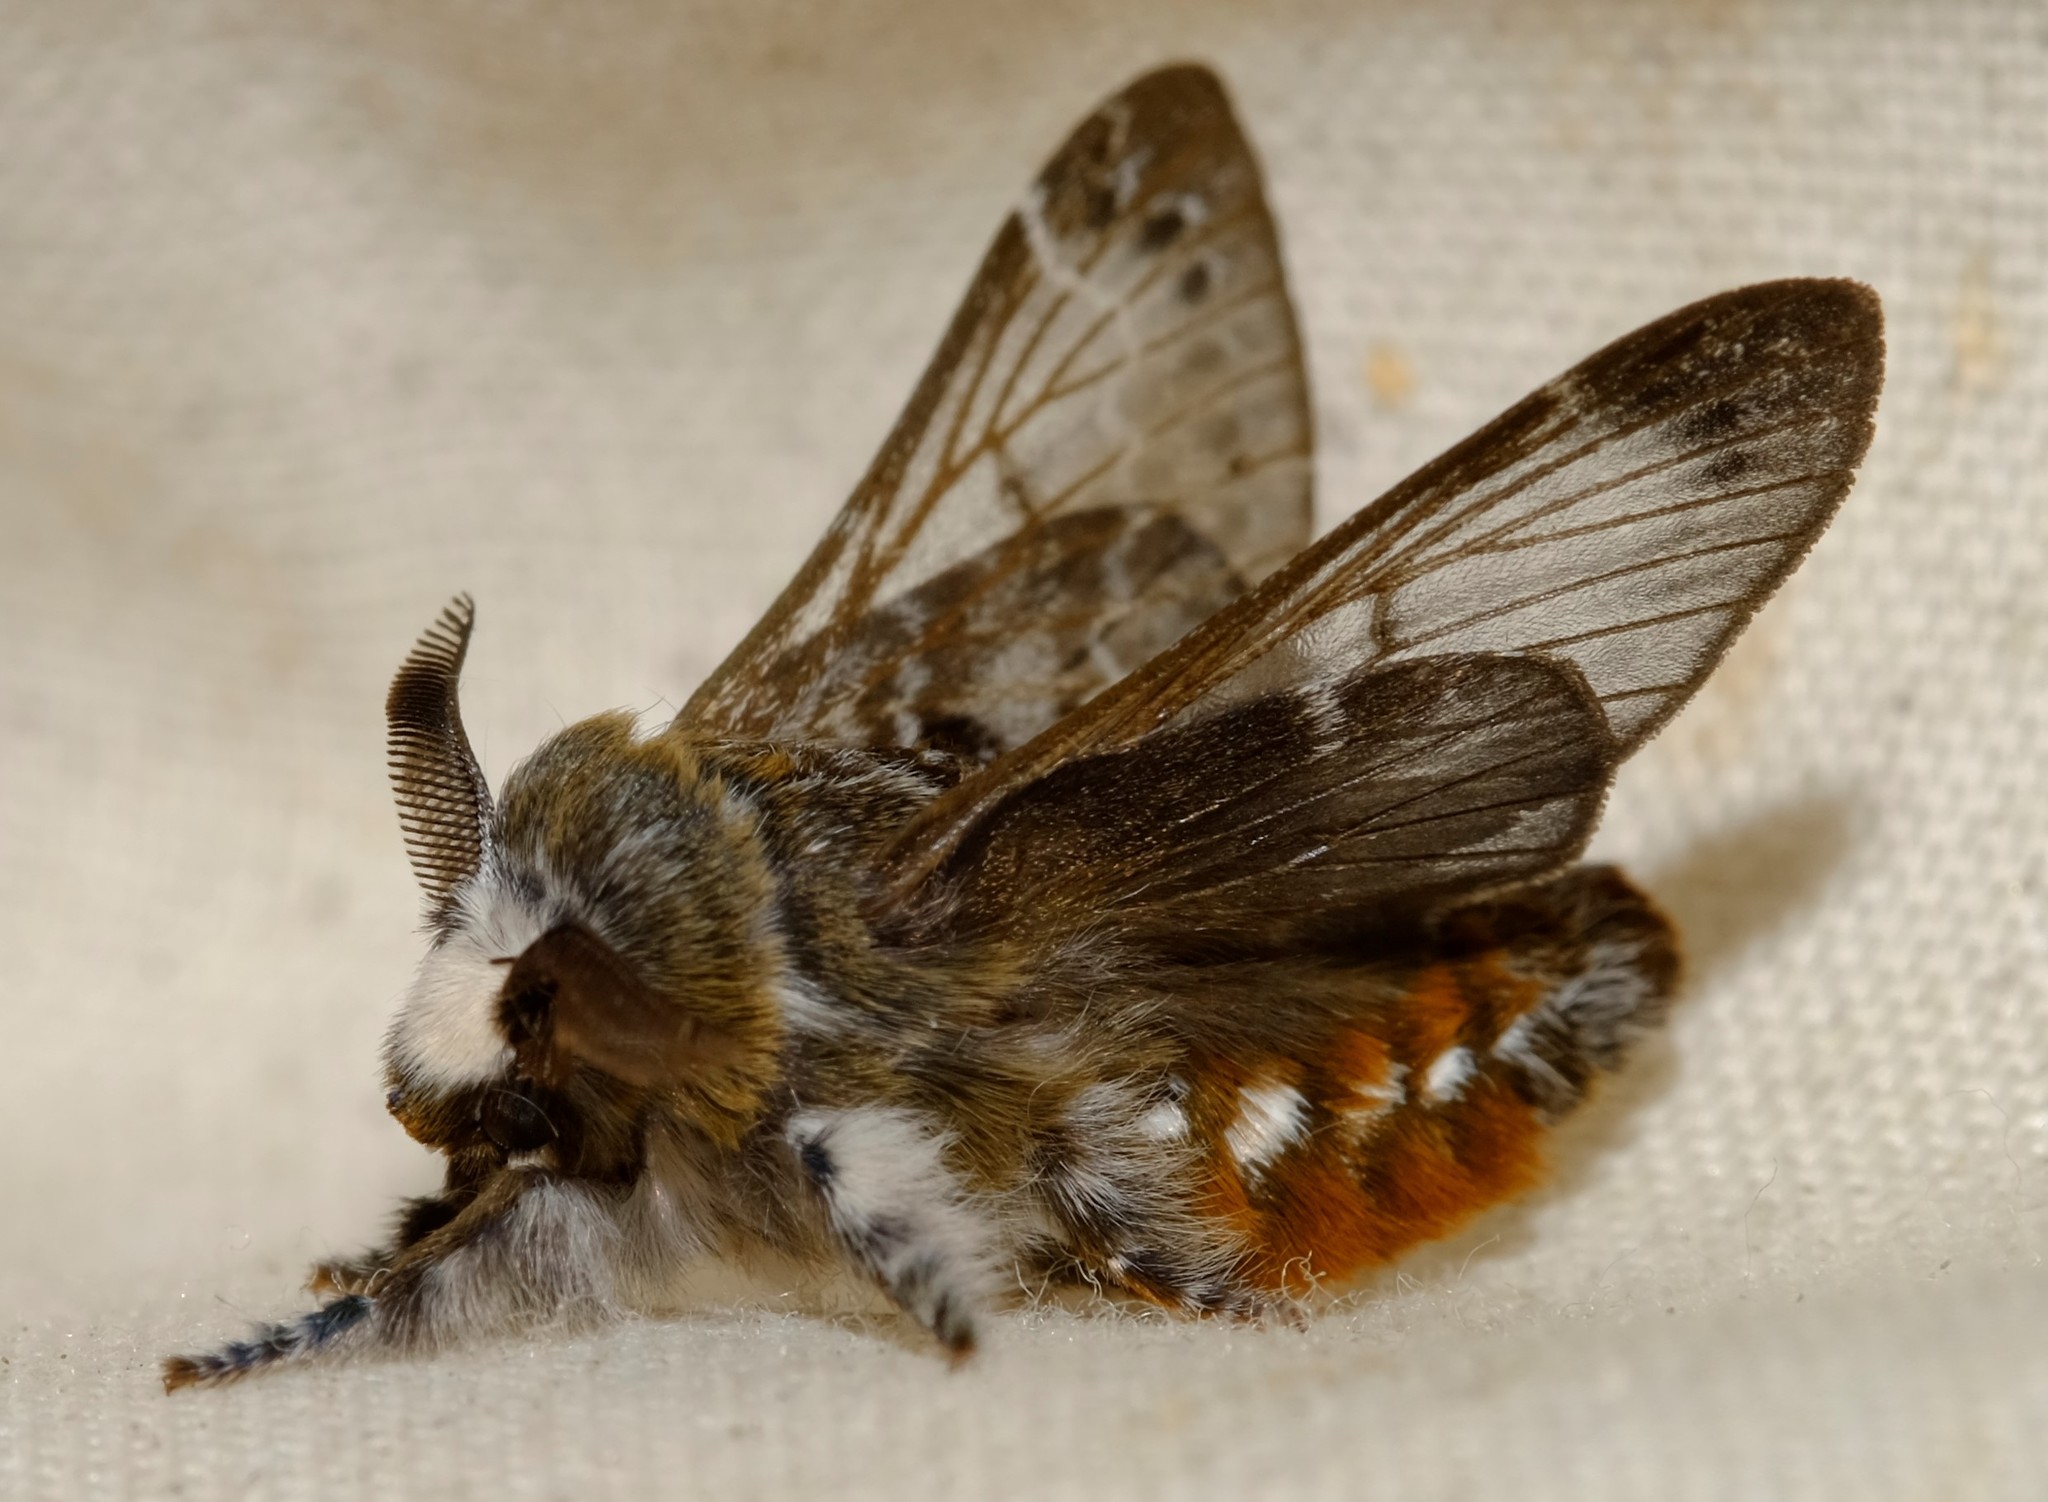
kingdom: Animalia
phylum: Arthropoda
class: Insecta
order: Lepidoptera
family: Lasiocampidae
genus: Genduara
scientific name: Genduara subnotata
